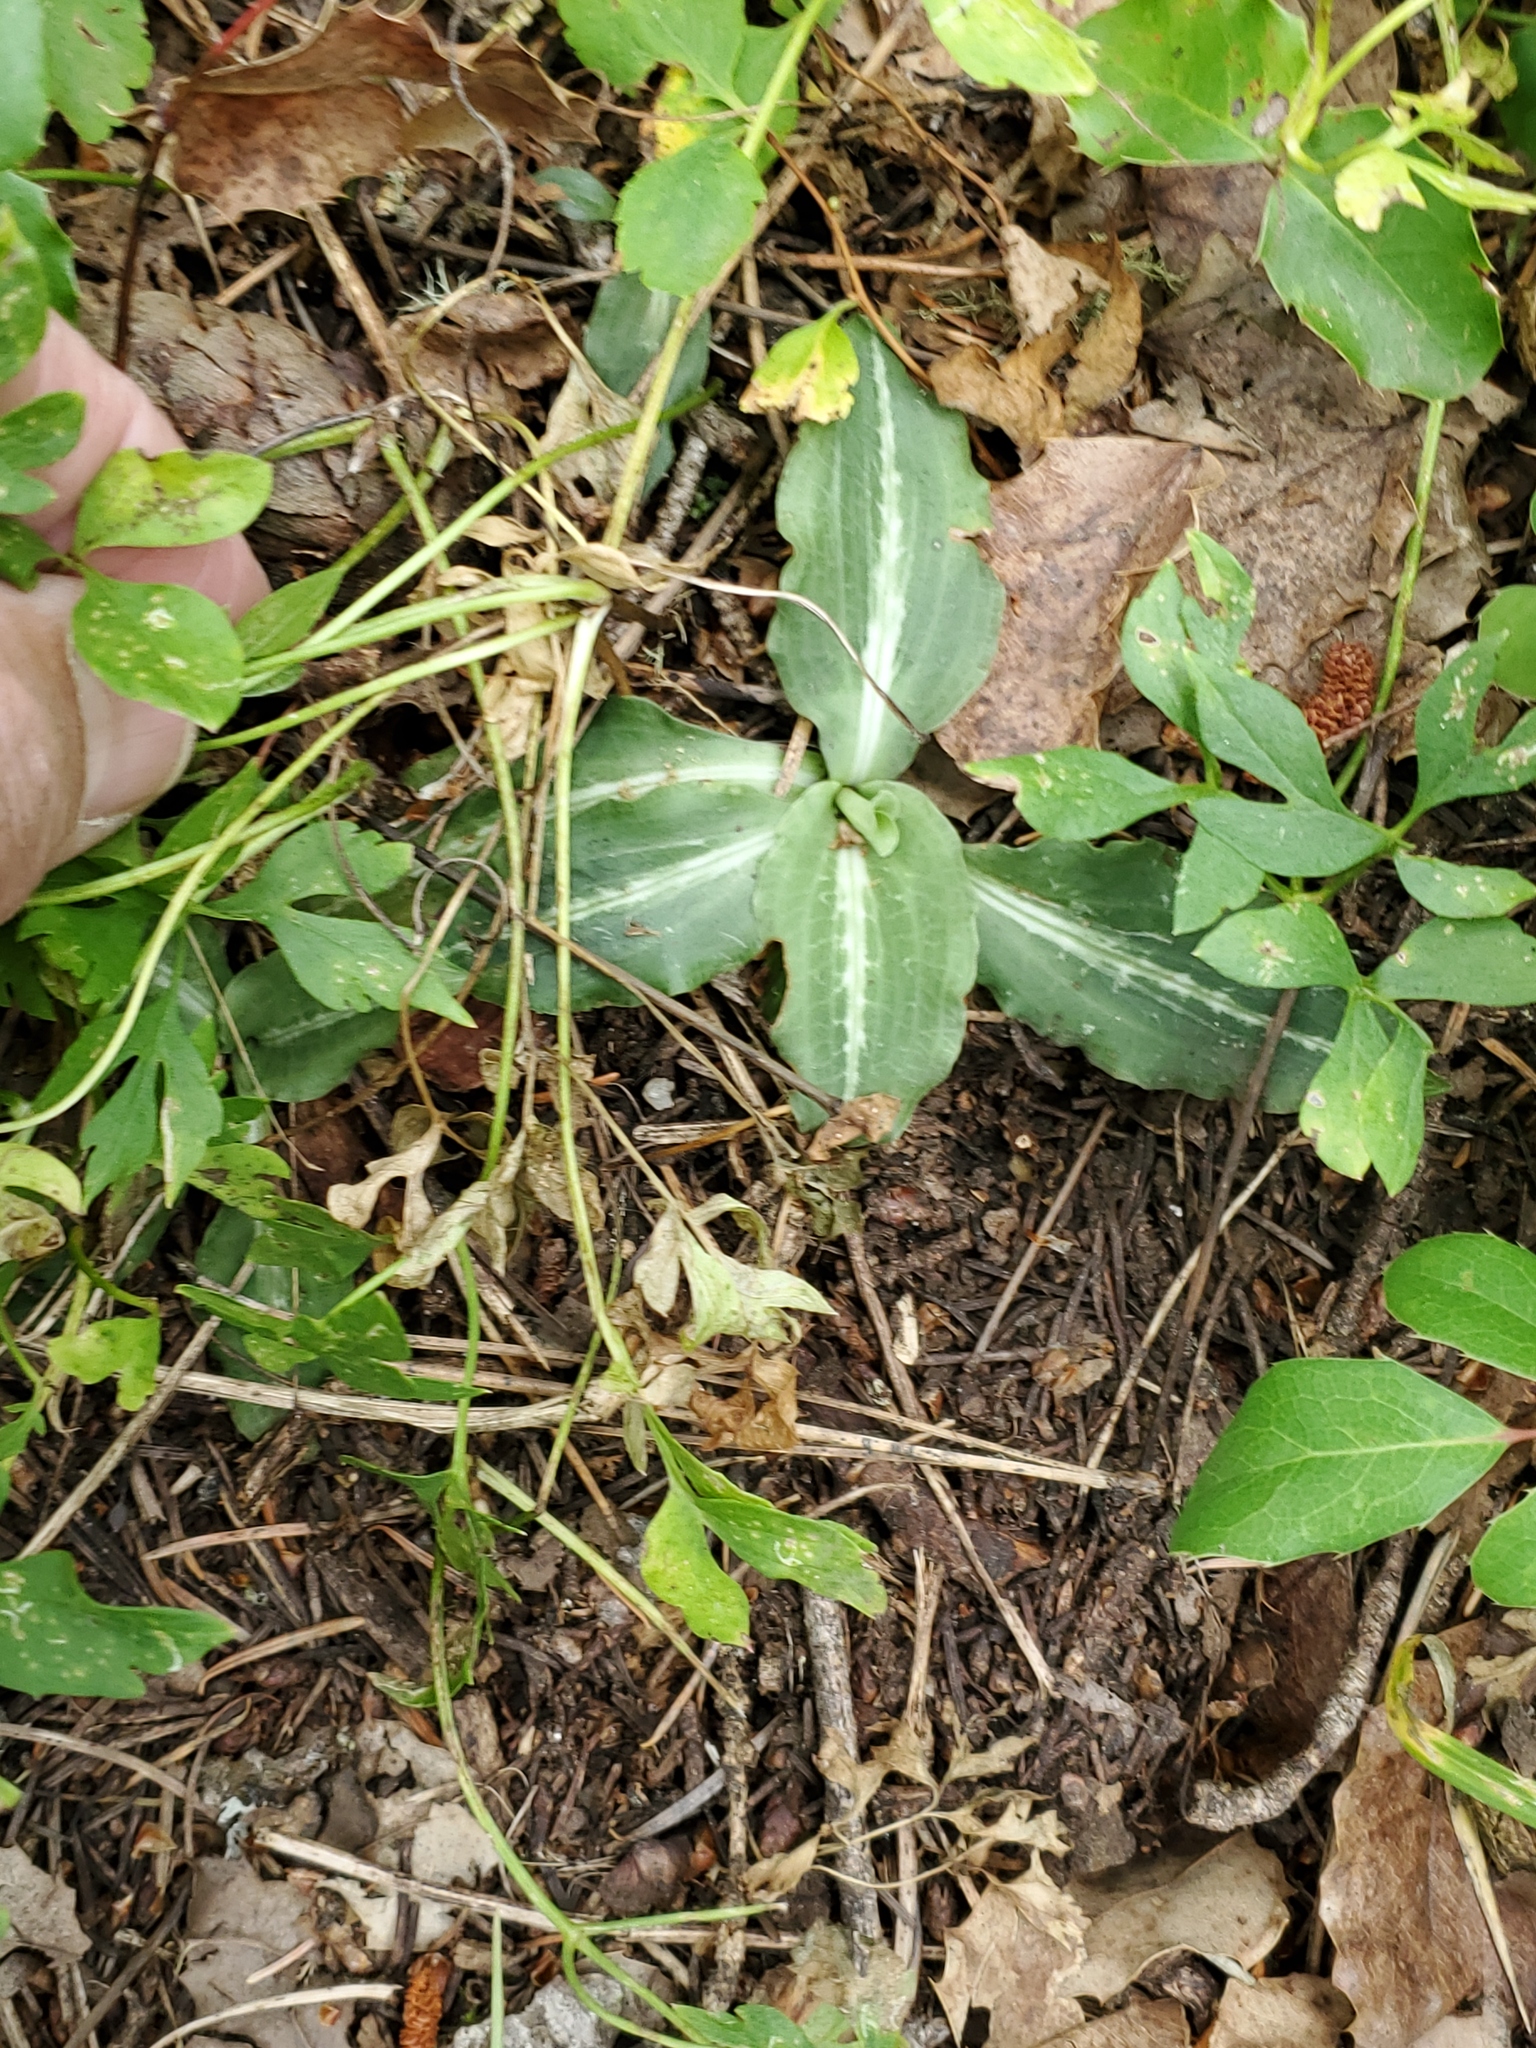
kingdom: Plantae
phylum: Tracheophyta
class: Liliopsida
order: Asparagales
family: Orchidaceae
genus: Goodyera
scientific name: Goodyera oblongifolia
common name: Giant rattlesnake-plantain
